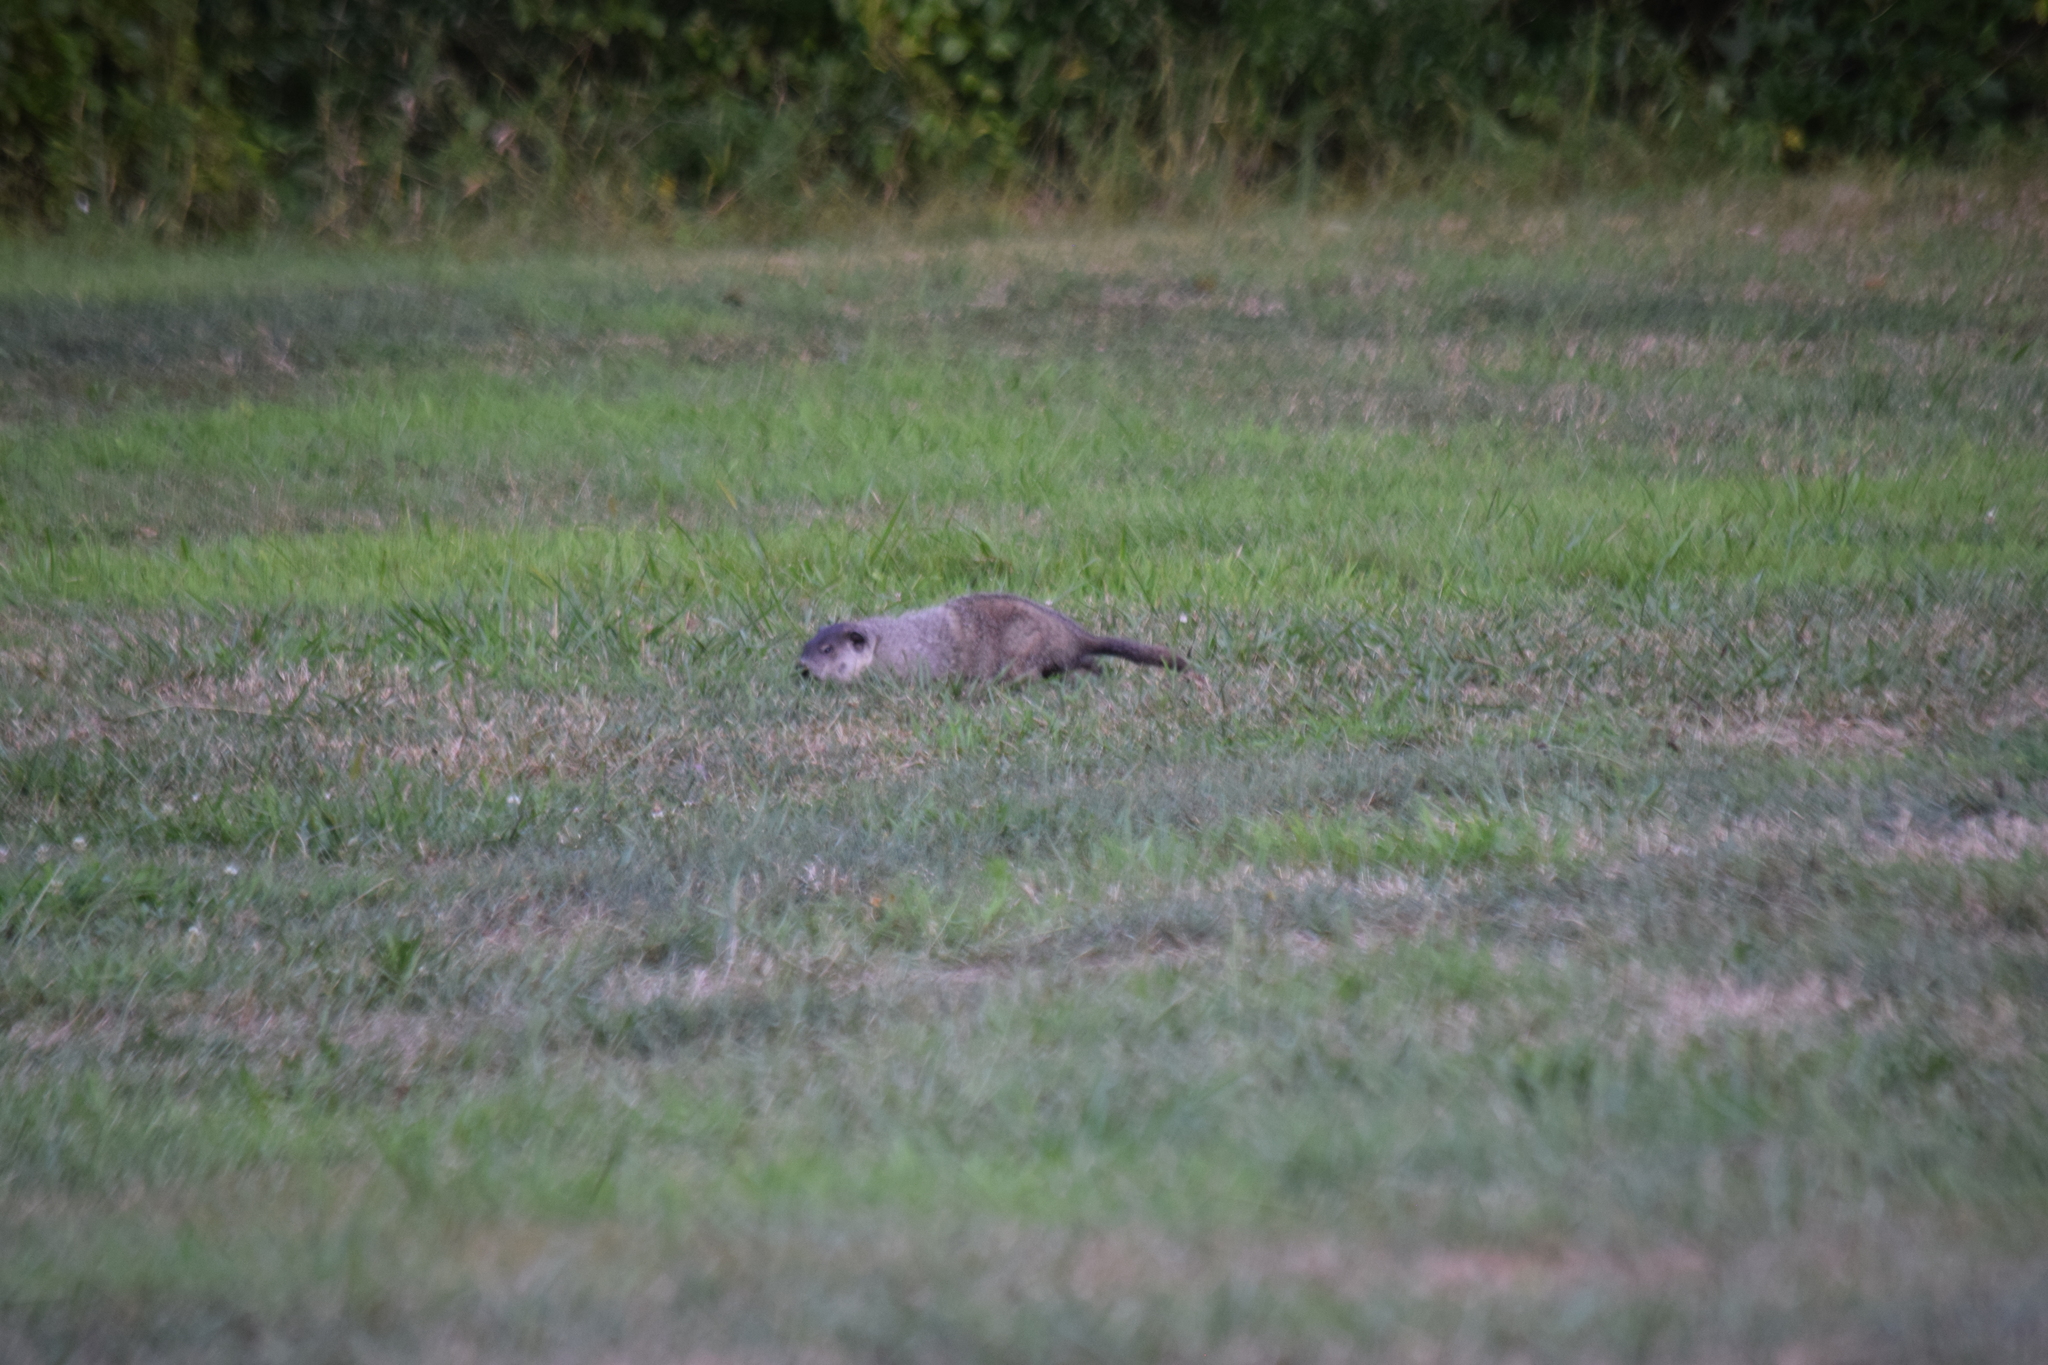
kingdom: Animalia
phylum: Chordata
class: Mammalia
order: Rodentia
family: Sciuridae
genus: Marmota
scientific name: Marmota monax
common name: Groundhog
